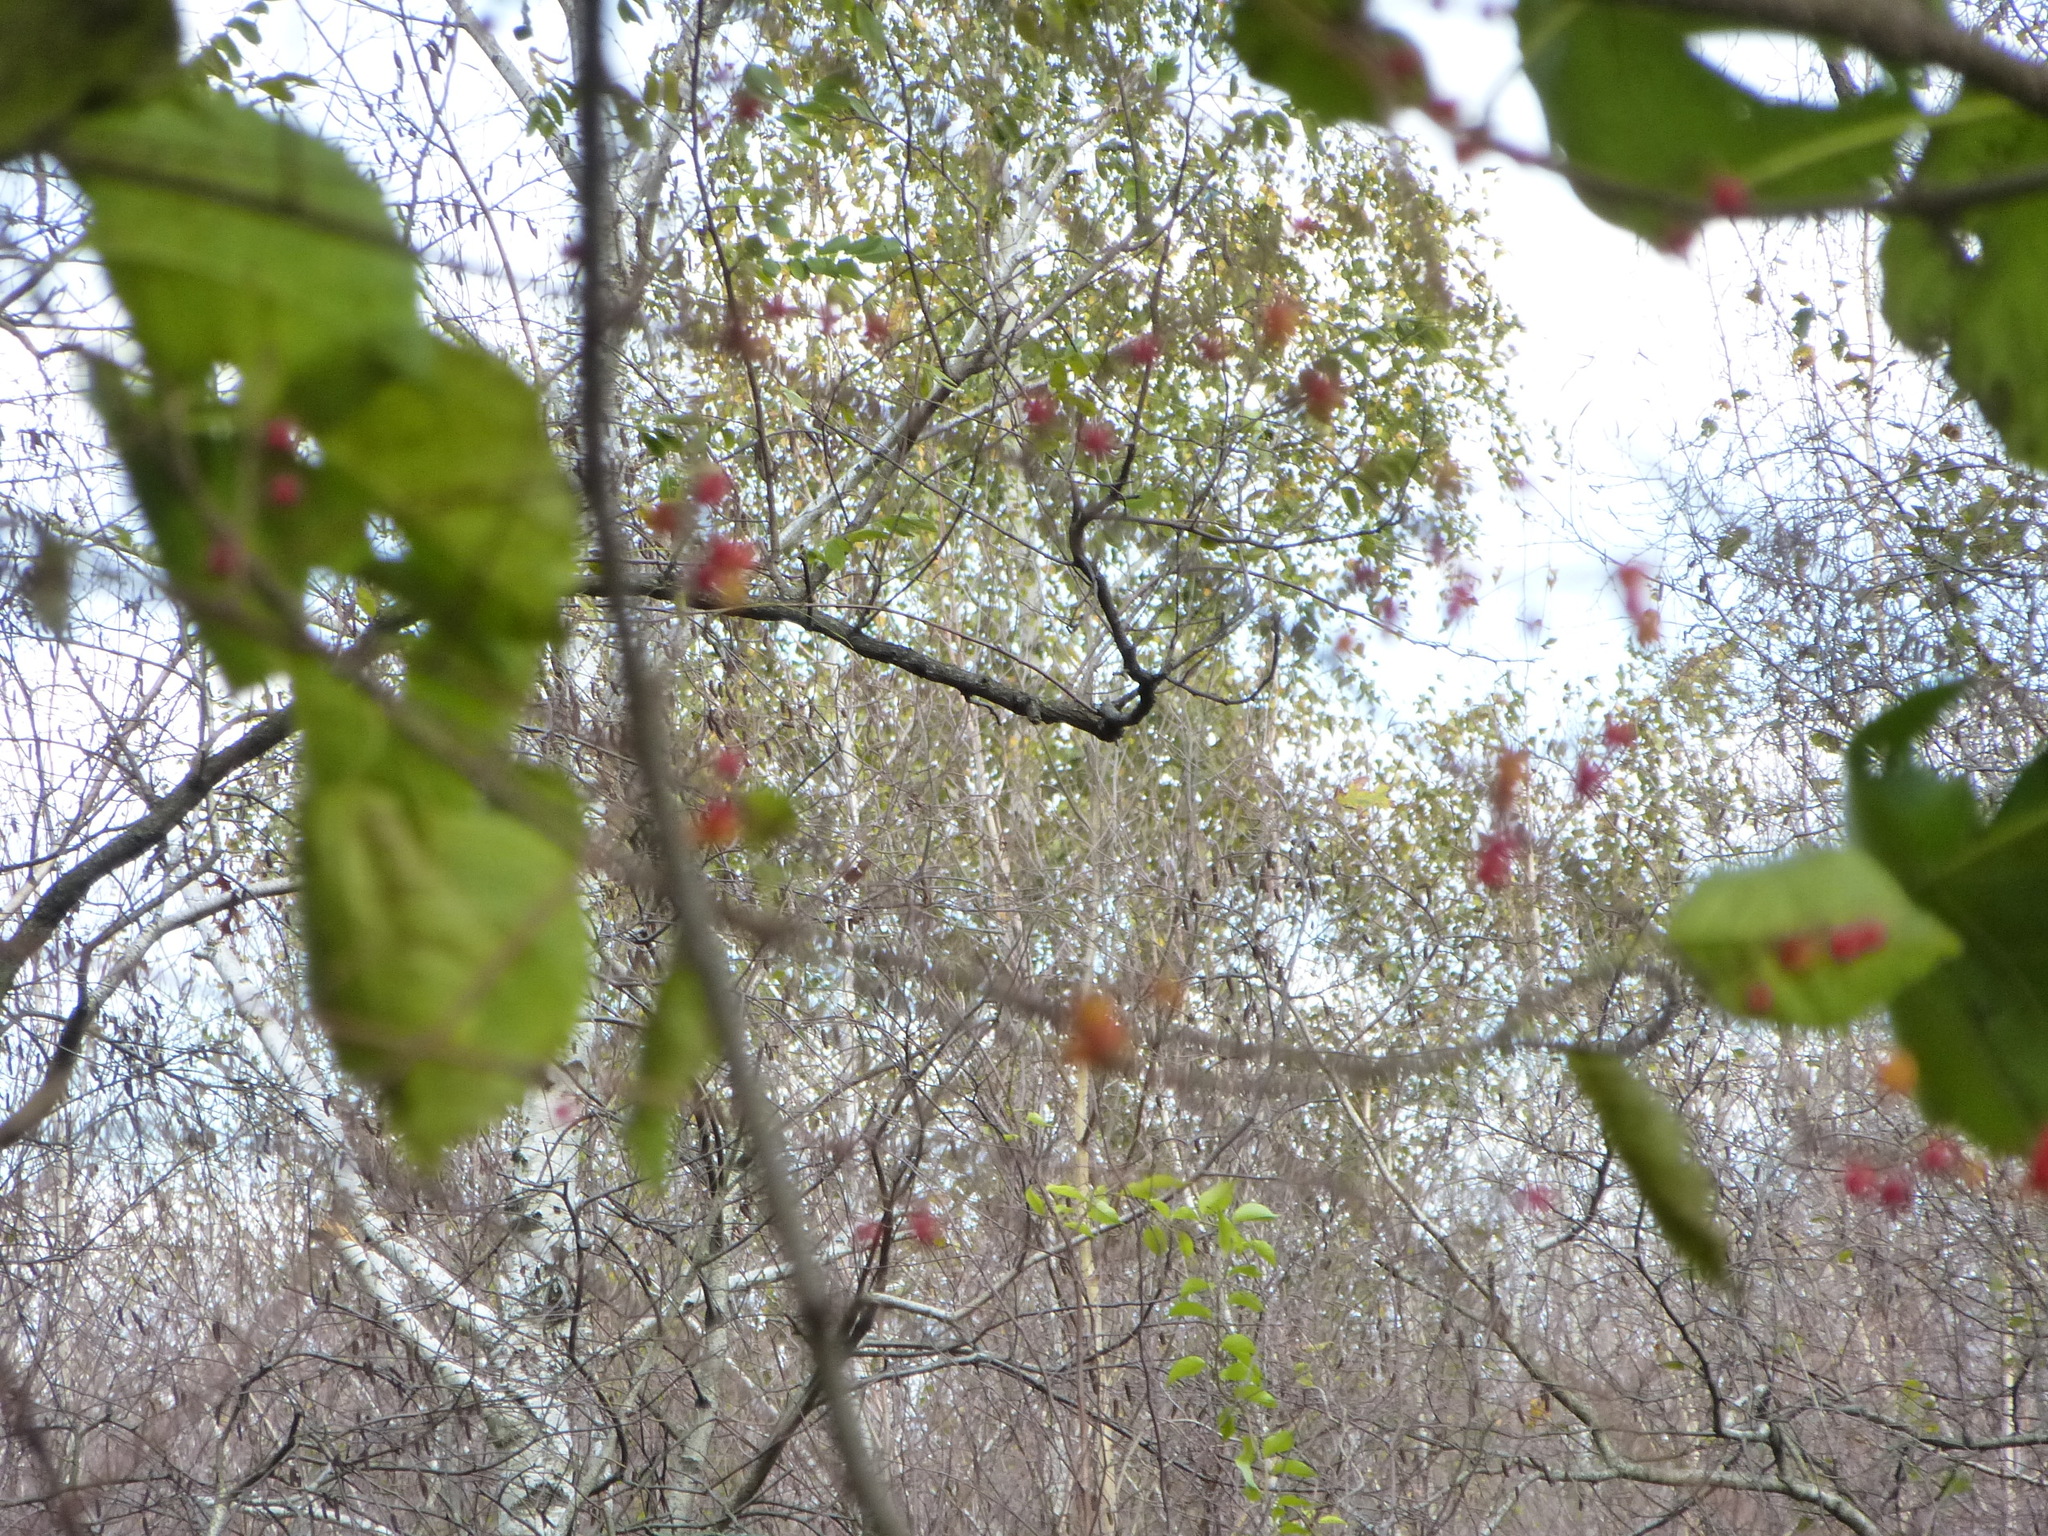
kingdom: Plantae
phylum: Tracheophyta
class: Magnoliopsida
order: Celastrales
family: Celastraceae
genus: Celastrus
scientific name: Celastrus orbiculatus
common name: Oriental bittersweet
